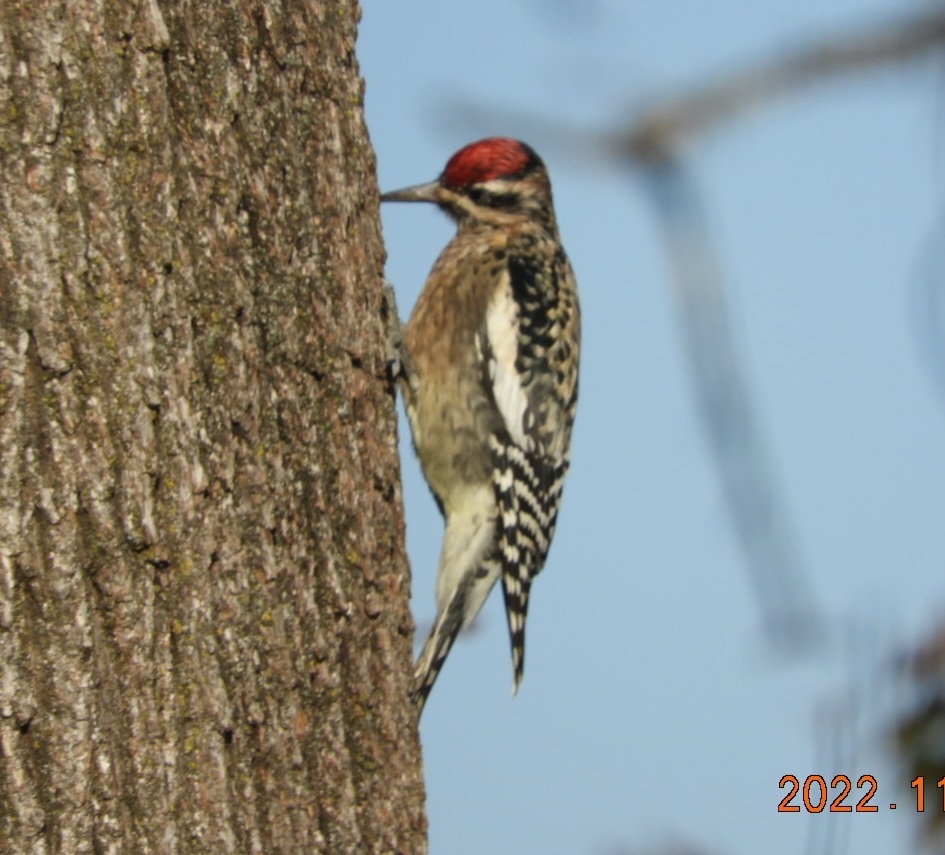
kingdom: Animalia
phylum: Chordata
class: Aves
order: Piciformes
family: Picidae
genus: Sphyrapicus
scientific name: Sphyrapicus varius
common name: Yellow-bellied sapsucker
